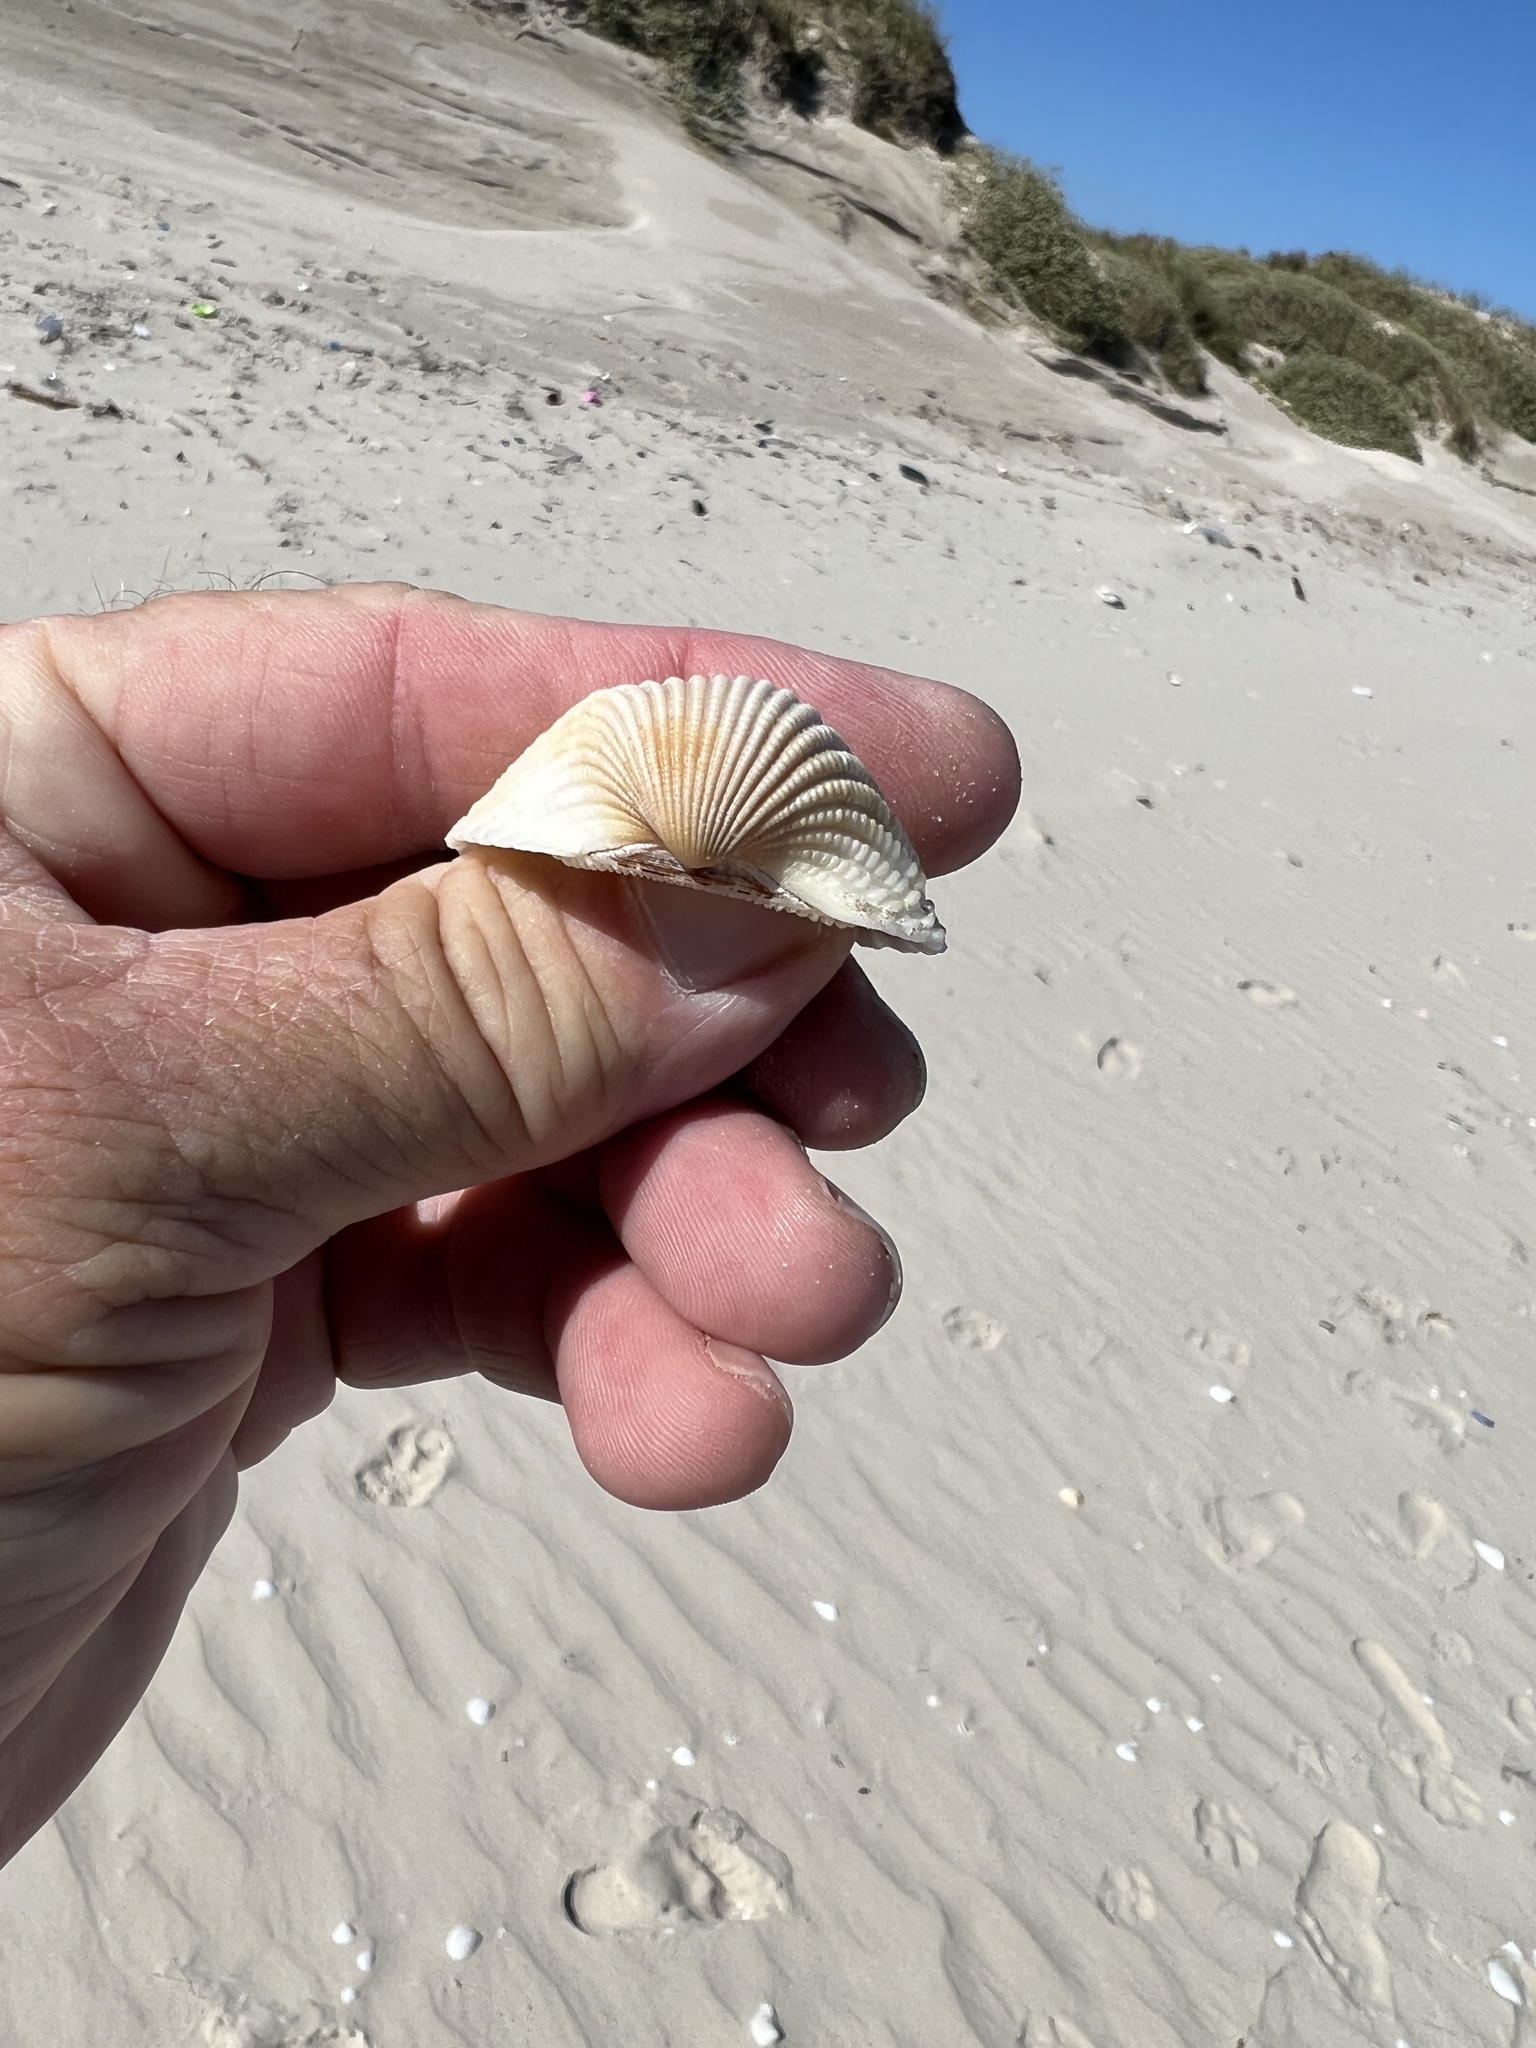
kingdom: Animalia
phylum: Mollusca
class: Bivalvia
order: Arcida
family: Arcidae
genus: Anadara
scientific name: Anadara brasiliana
